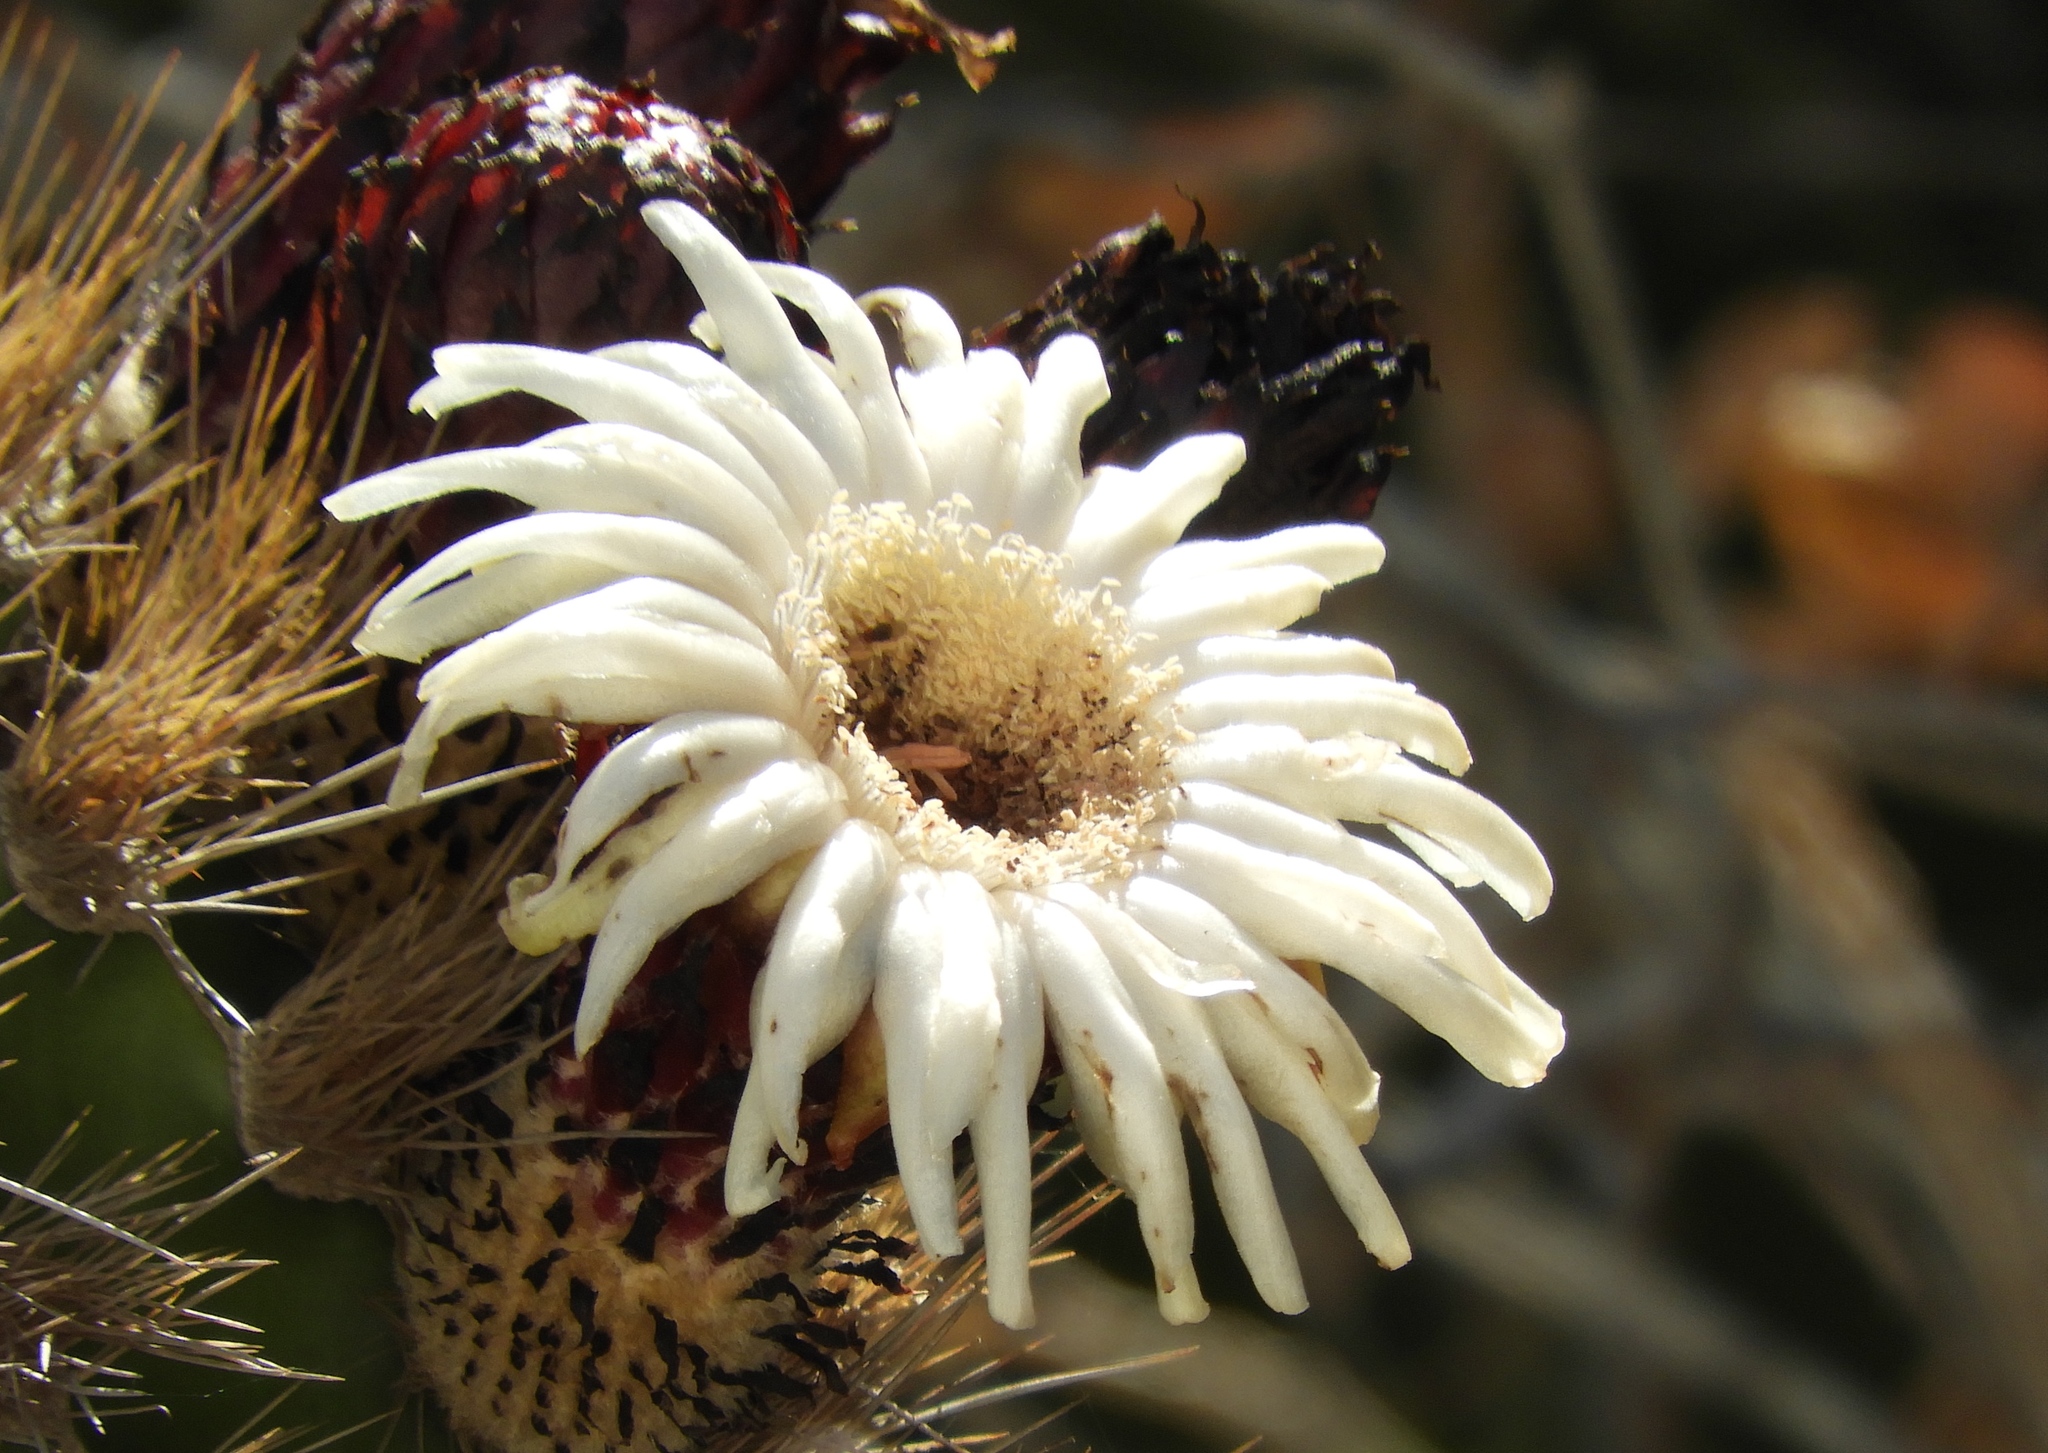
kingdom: Plantae
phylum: Tracheophyta
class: Magnoliopsida
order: Caryophyllales
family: Cactaceae
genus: Pachycereus
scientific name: Pachycereus pecten-aboriginum
